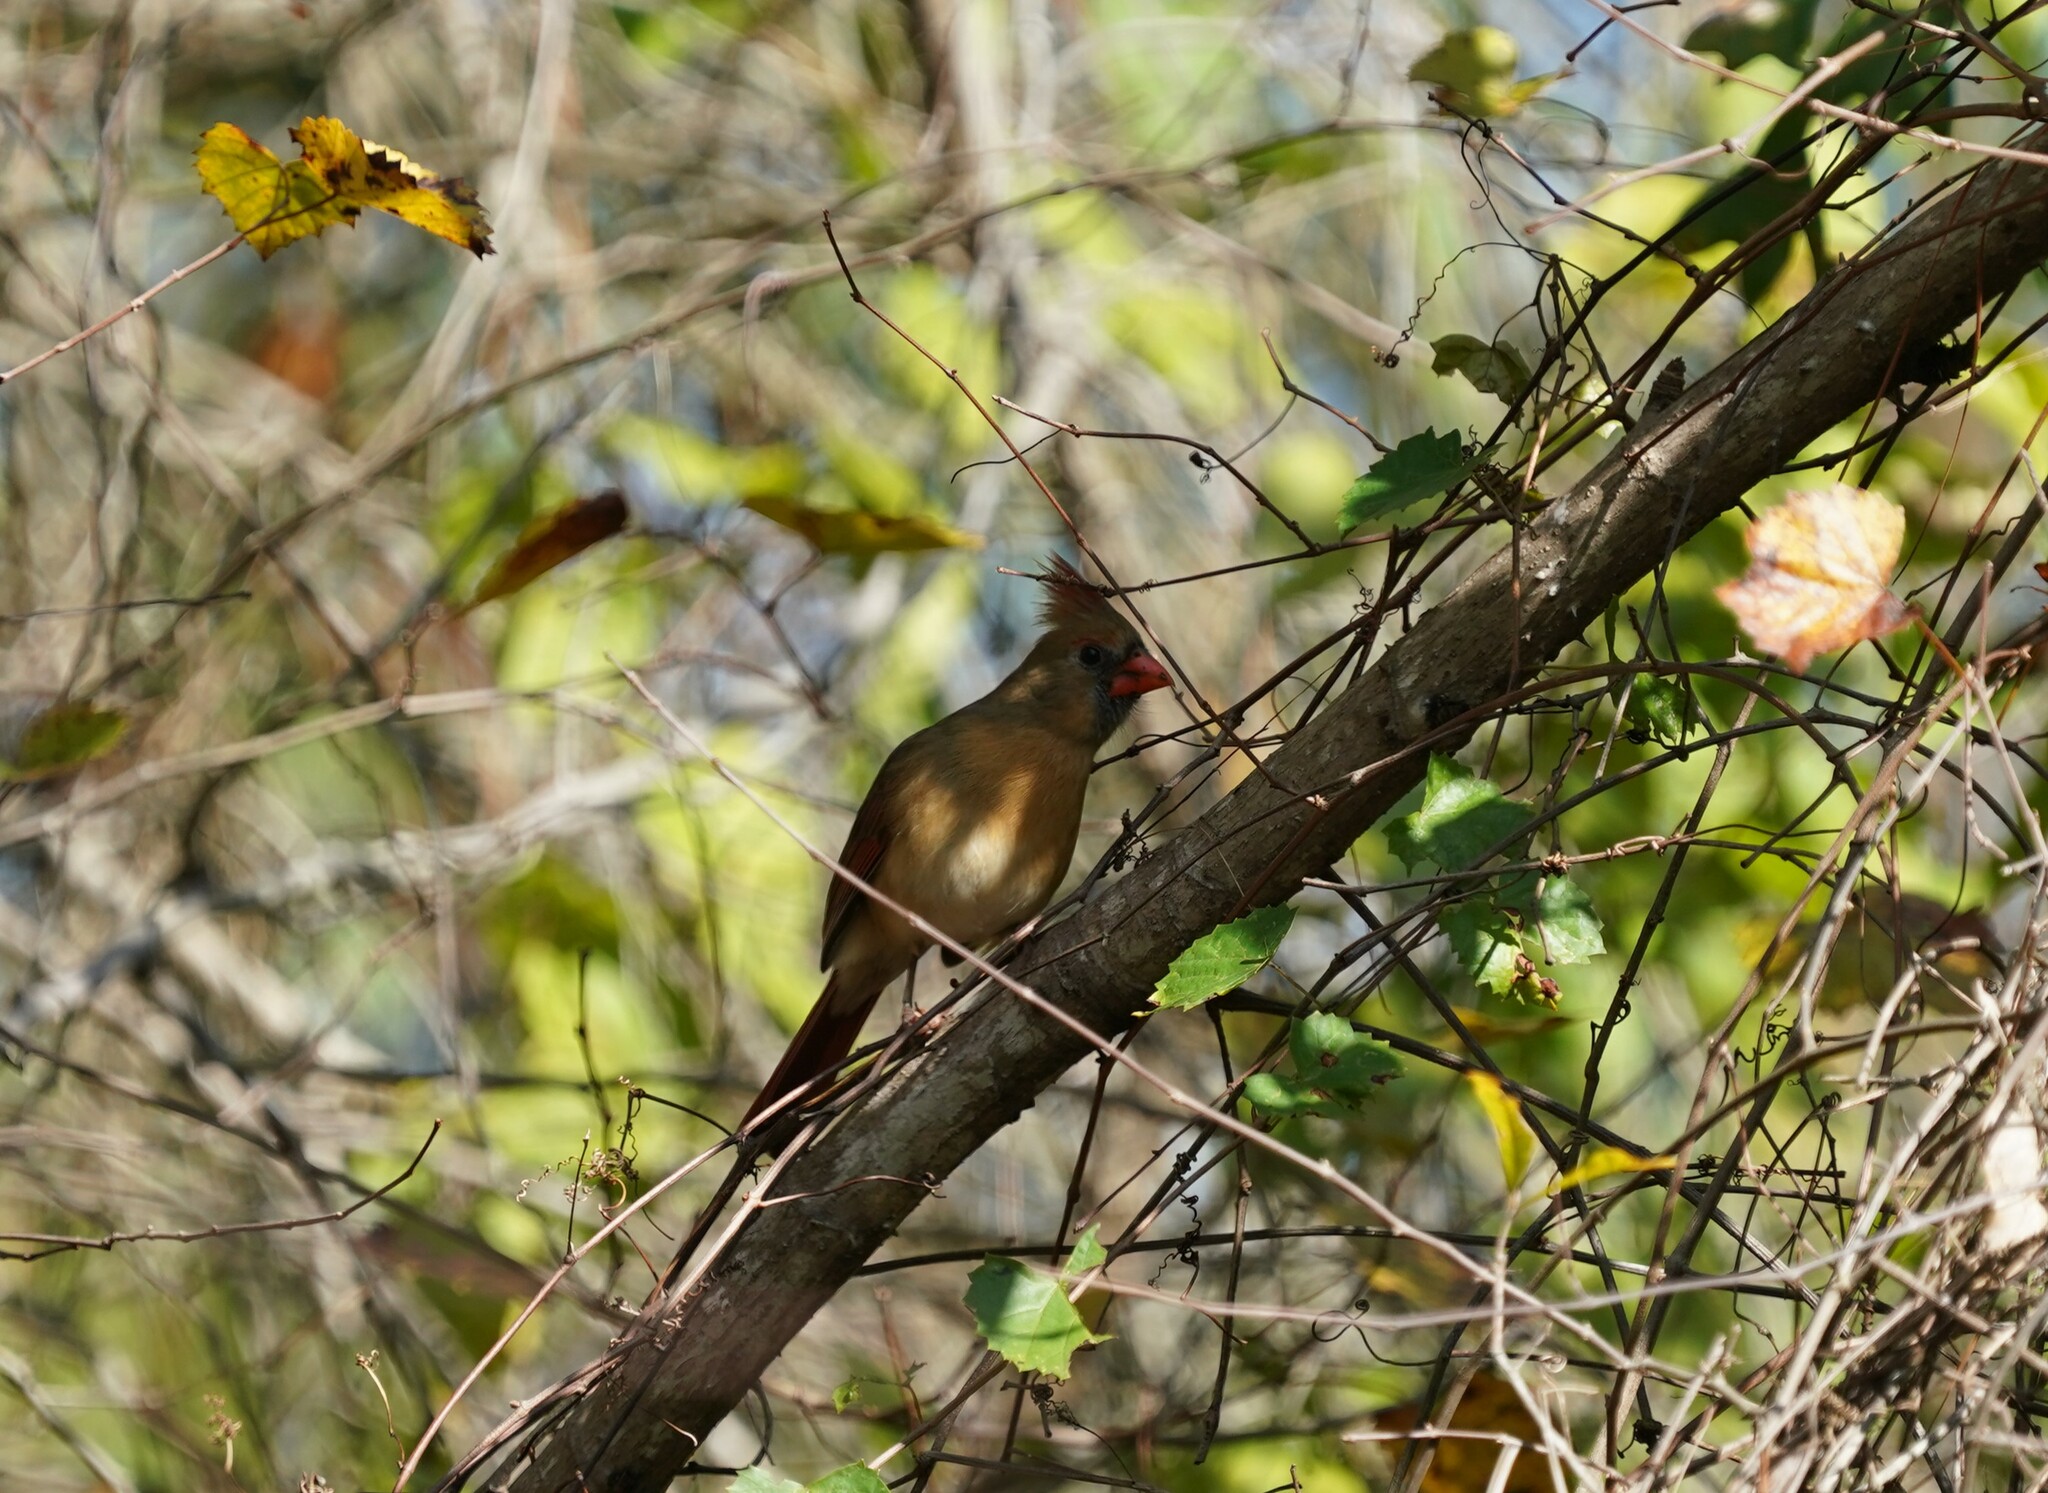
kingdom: Animalia
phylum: Chordata
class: Aves
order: Passeriformes
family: Cardinalidae
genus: Cardinalis
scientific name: Cardinalis cardinalis
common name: Northern cardinal
